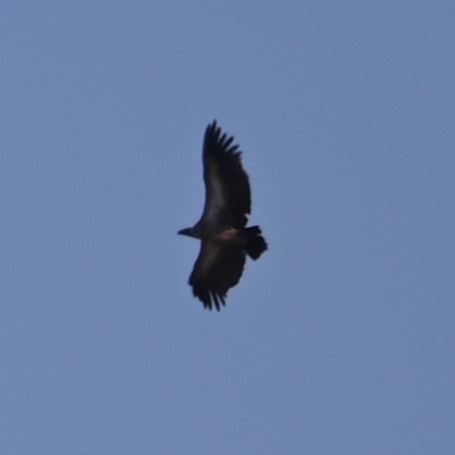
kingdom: Animalia
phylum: Chordata
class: Aves
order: Accipitriformes
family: Accipitridae
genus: Gyps
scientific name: Gyps africanus
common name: White-backed vulture
